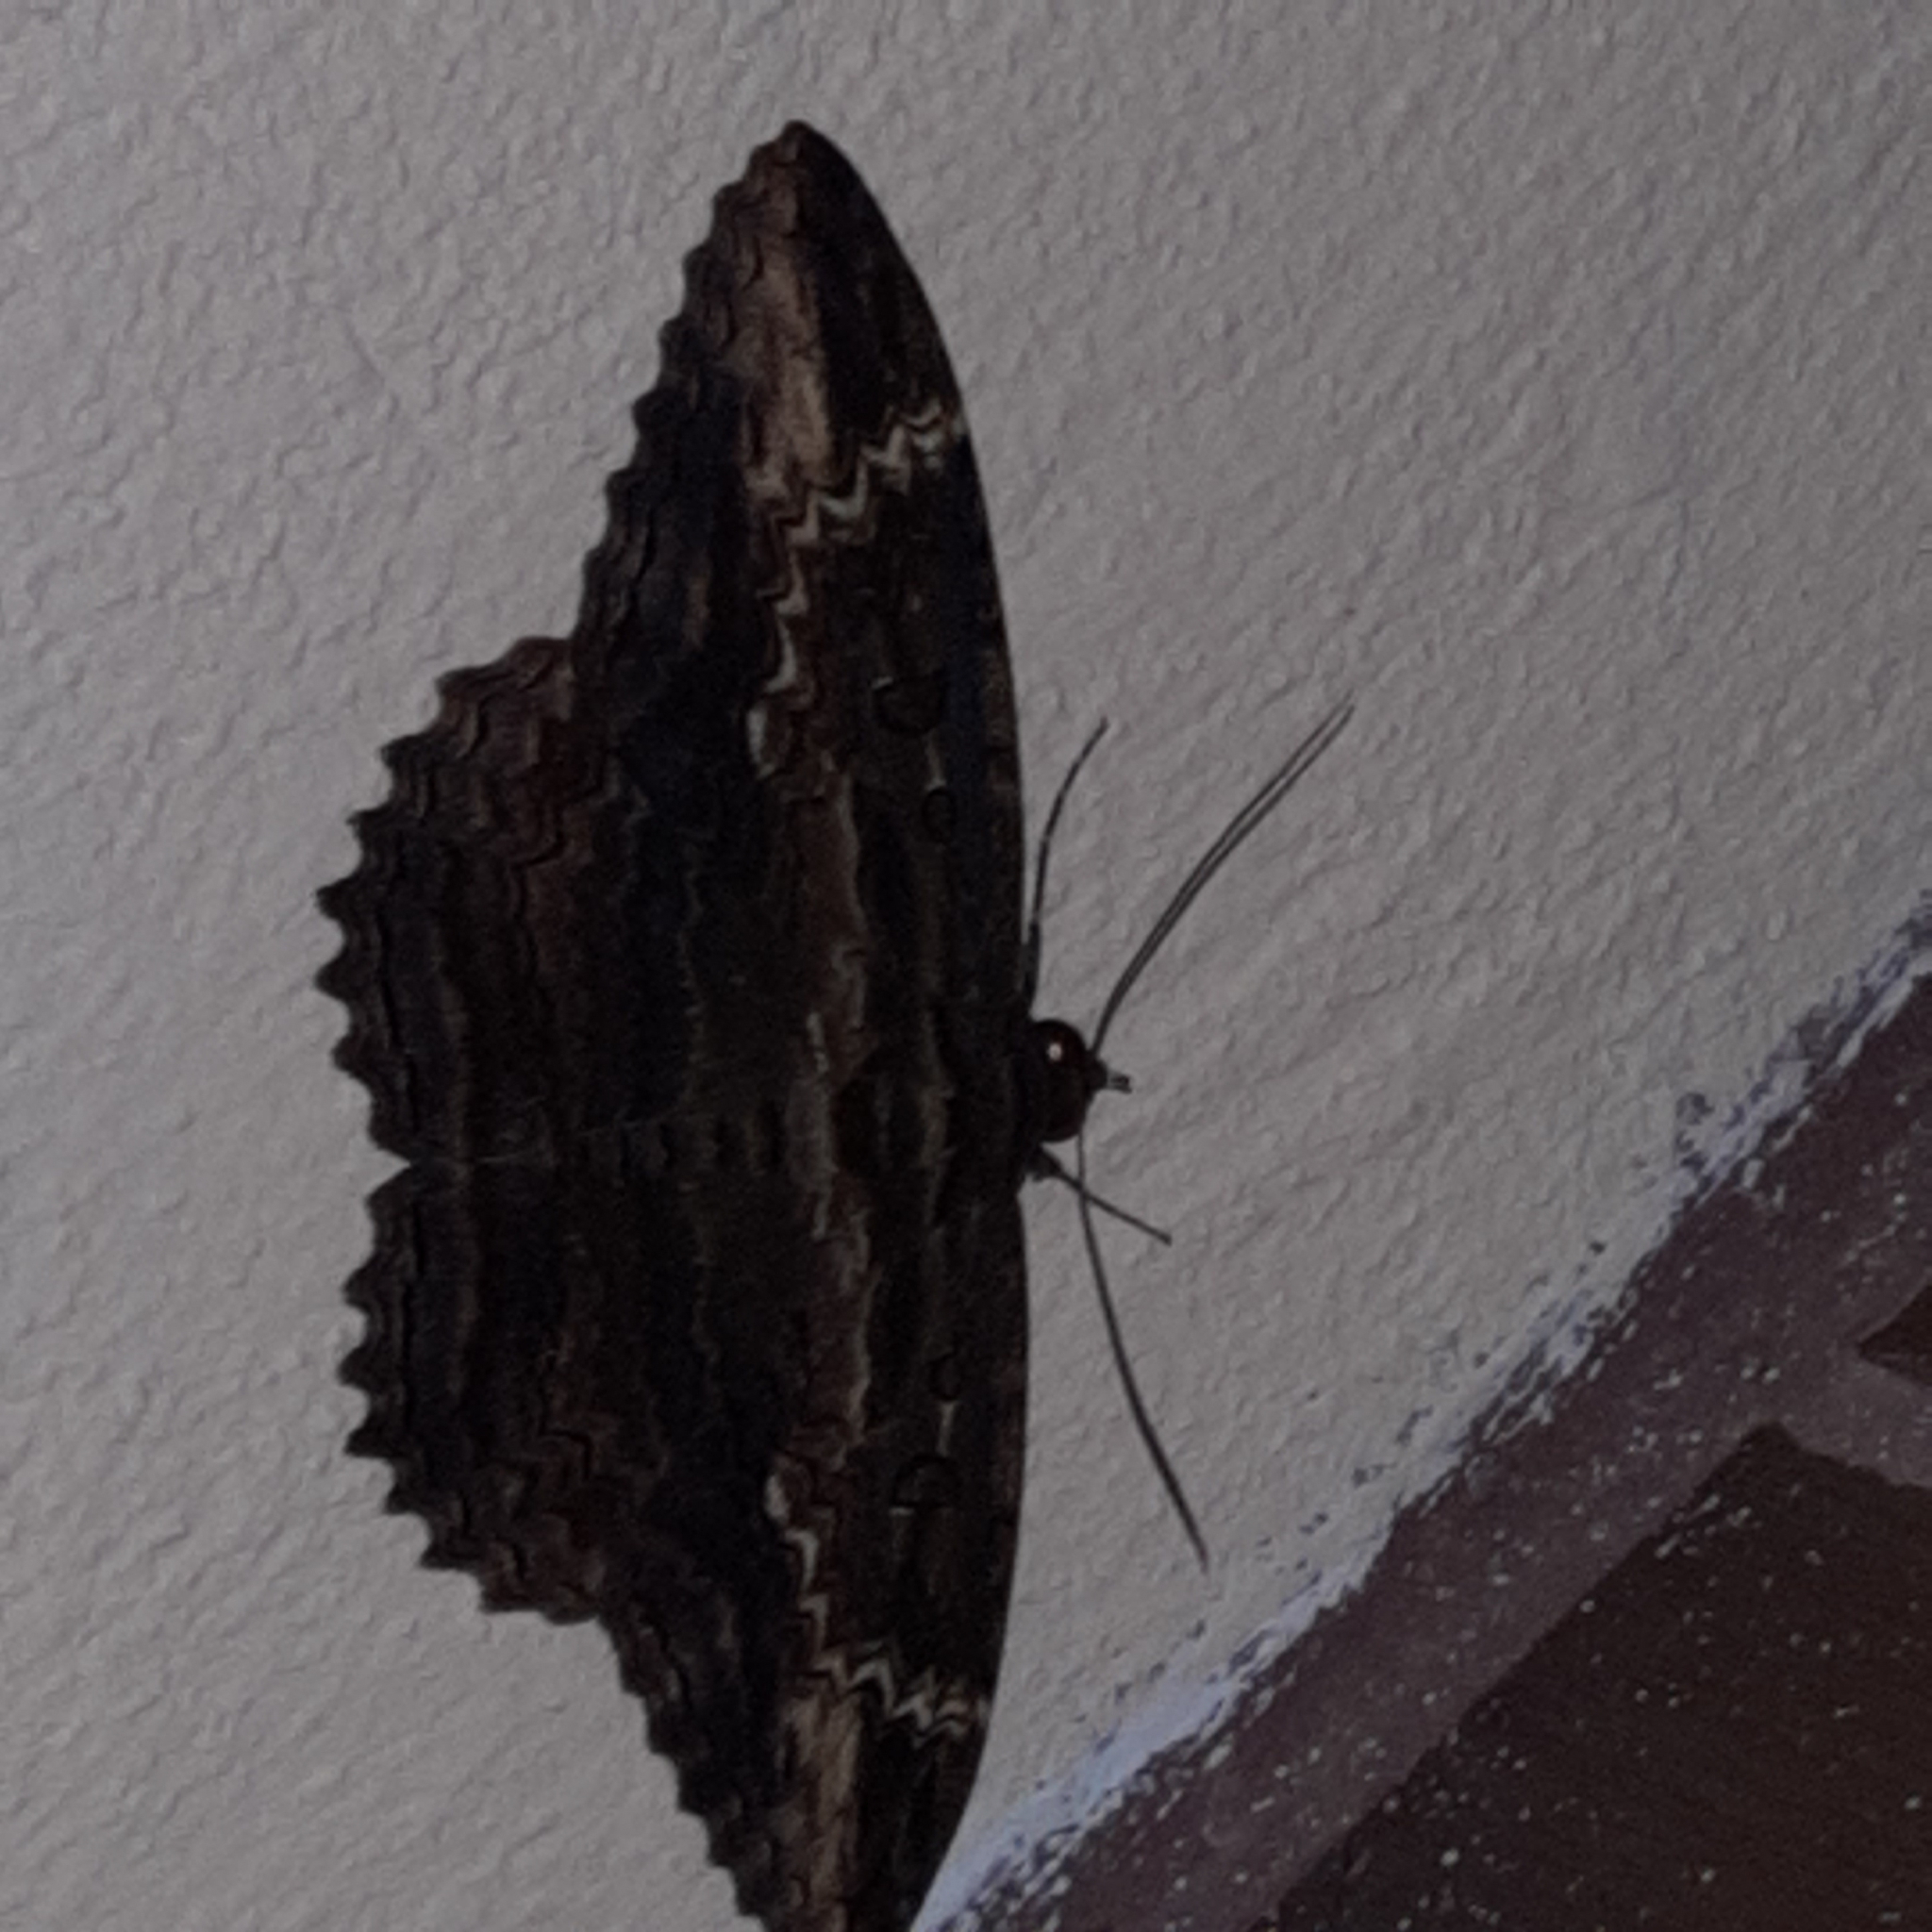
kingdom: Animalia
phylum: Arthropoda
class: Insecta
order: Lepidoptera
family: Erebidae
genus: Feigeria
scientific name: Feigeria buteo
